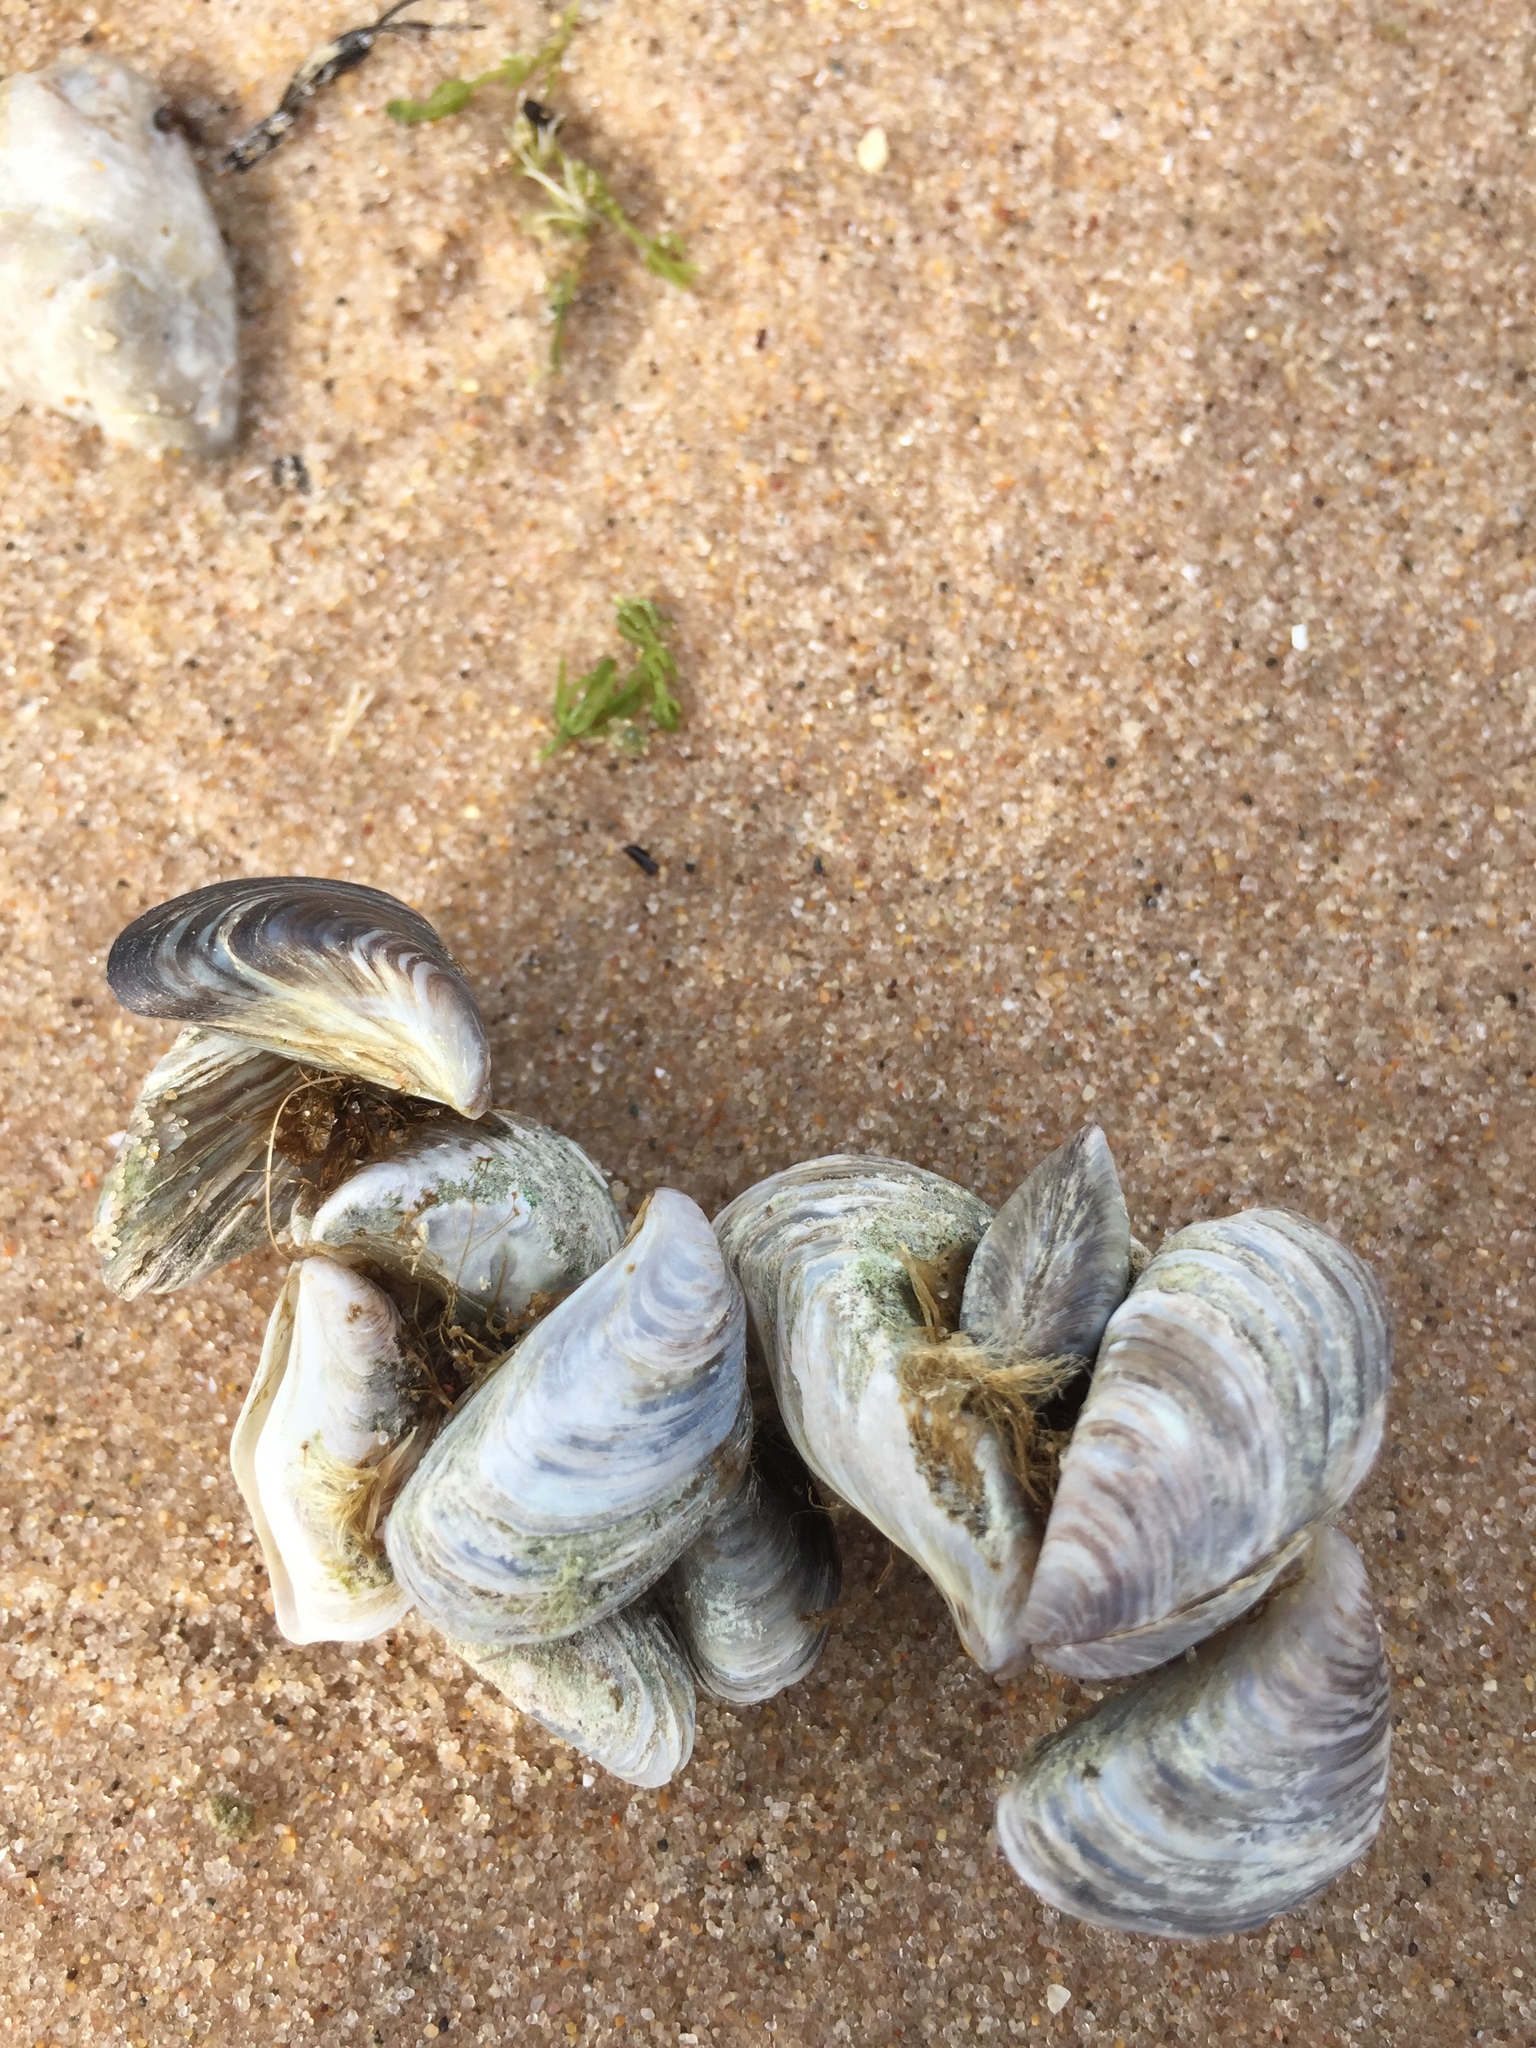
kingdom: Animalia
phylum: Mollusca
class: Bivalvia
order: Myida
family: Dreissenidae
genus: Dreissena
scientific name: Dreissena polymorpha
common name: Zebra mussel
